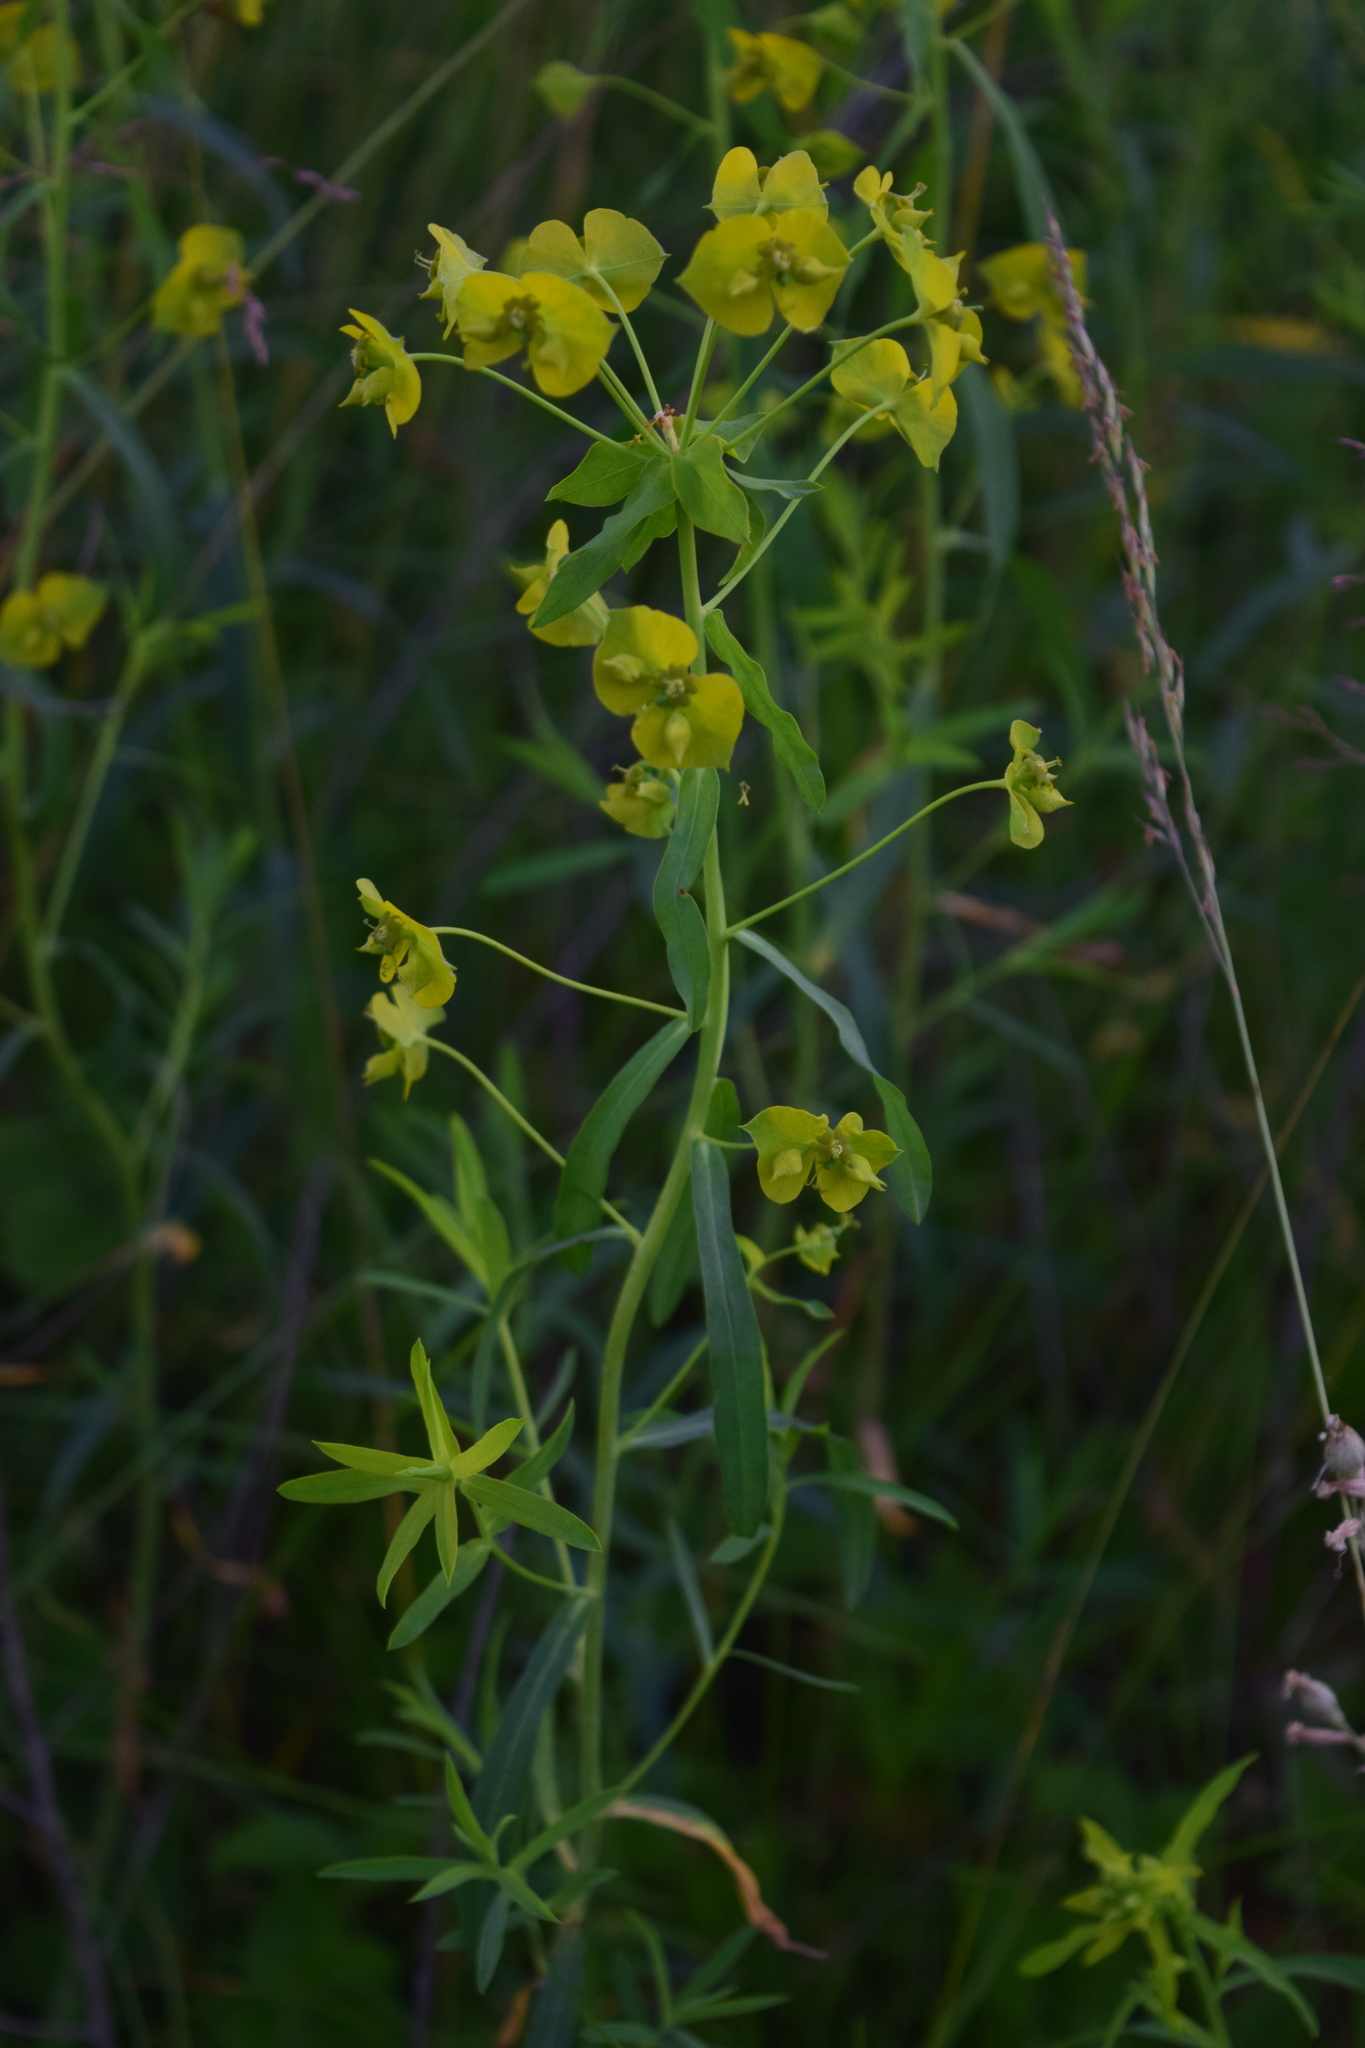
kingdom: Plantae
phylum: Tracheophyta
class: Magnoliopsida
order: Malpighiales
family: Euphorbiaceae
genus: Euphorbia
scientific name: Euphorbia virgata
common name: Leafy spurge
